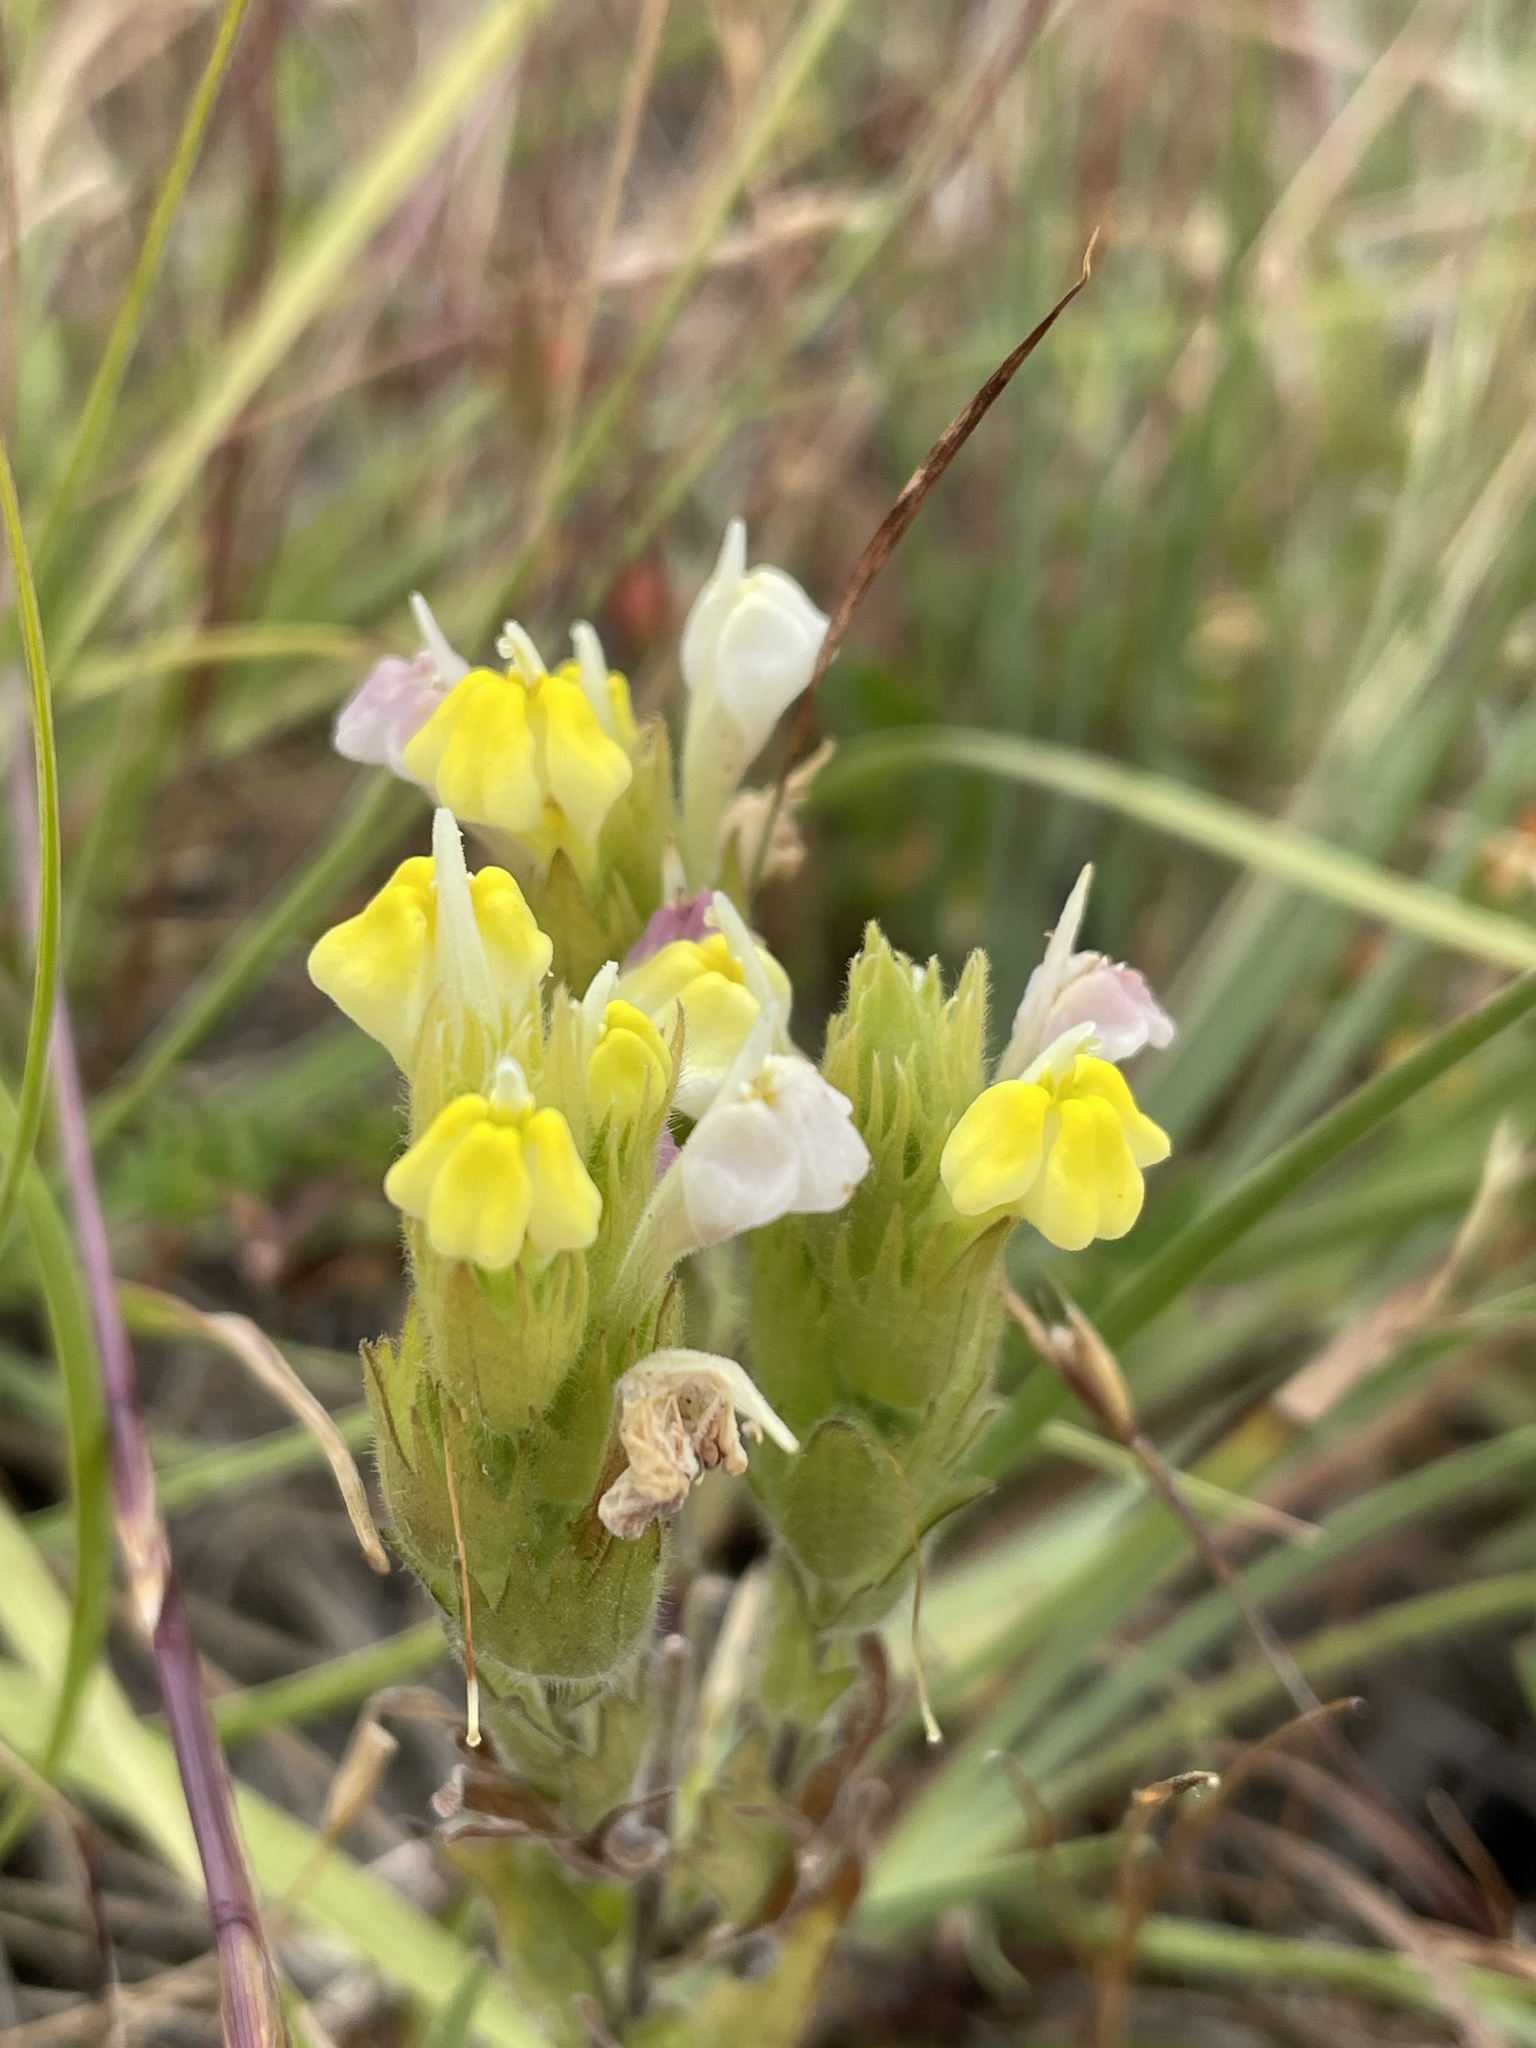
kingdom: Plantae
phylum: Tracheophyta
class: Magnoliopsida
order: Lamiales
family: Orobanchaceae
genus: Castilleja
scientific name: Castilleja rubicundula
